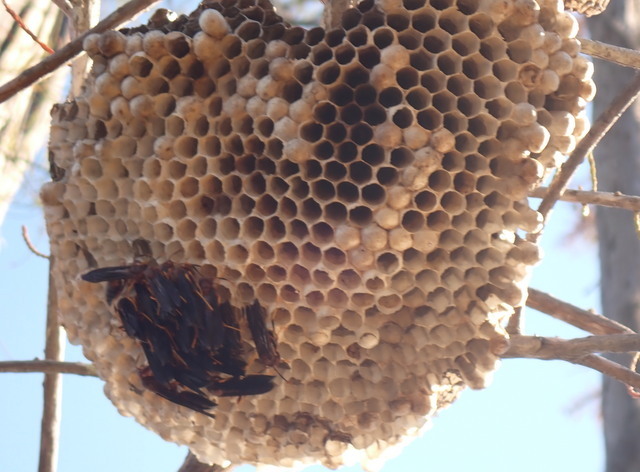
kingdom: Animalia
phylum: Arthropoda
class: Insecta
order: Hymenoptera
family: Eumenidae
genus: Polistes
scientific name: Polistes annularis
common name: Ringed paper wasp
